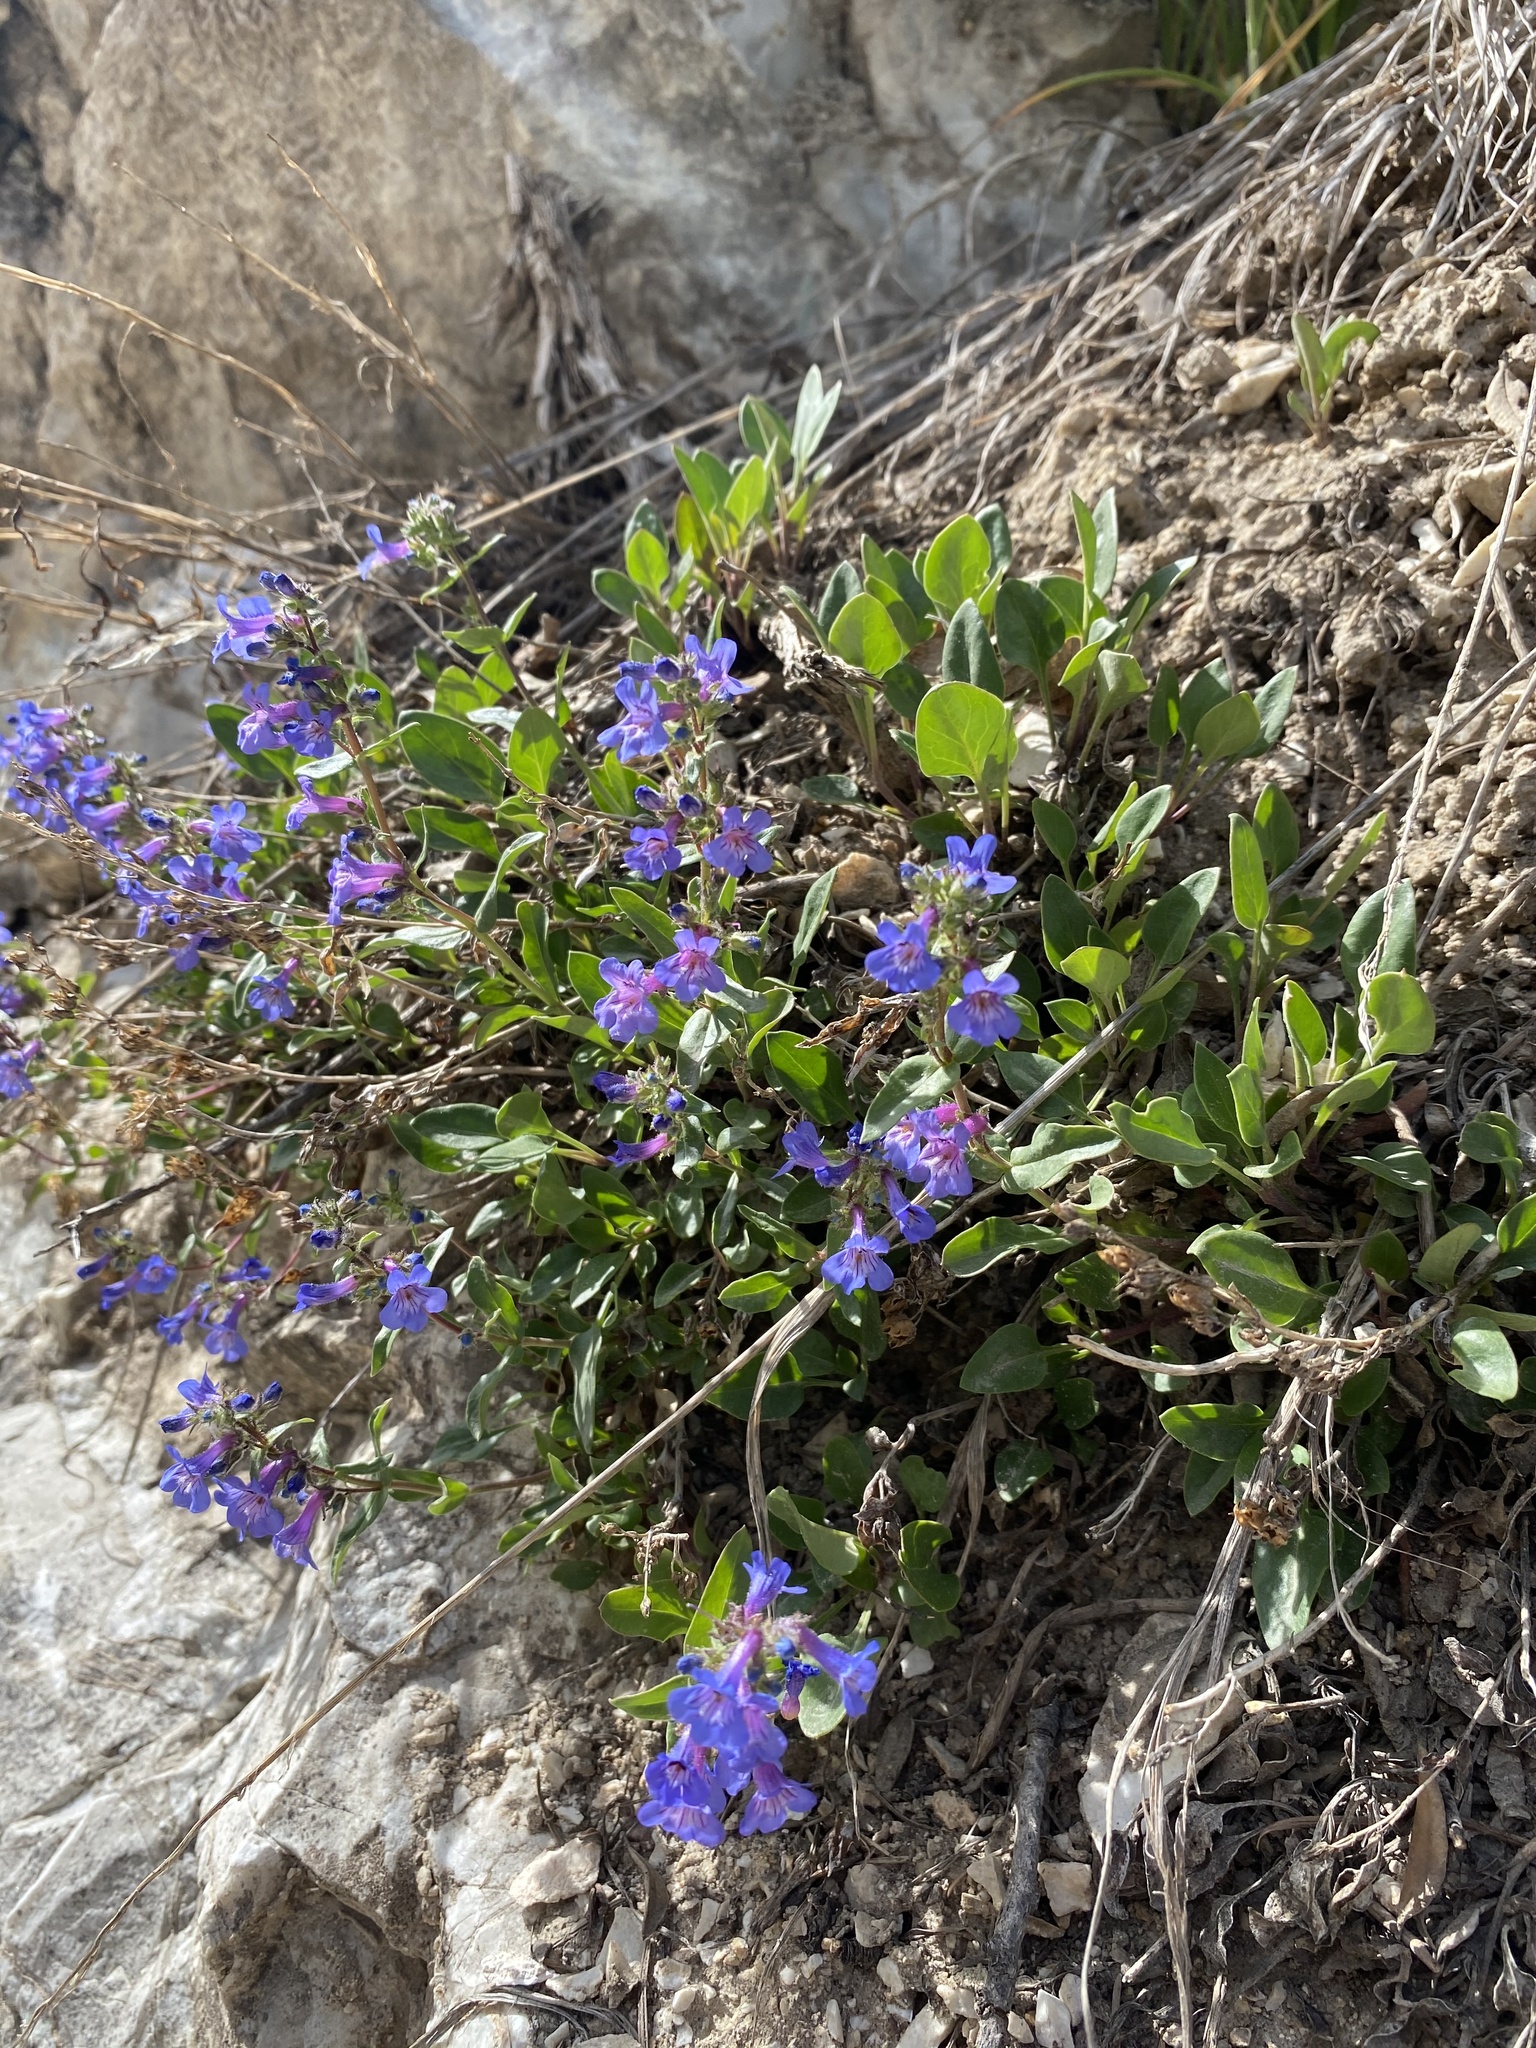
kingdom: Plantae
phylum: Tracheophyta
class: Magnoliopsida
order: Lamiales
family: Plantaginaceae
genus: Penstemon
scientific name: Penstemon humilis
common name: Low penstemon
